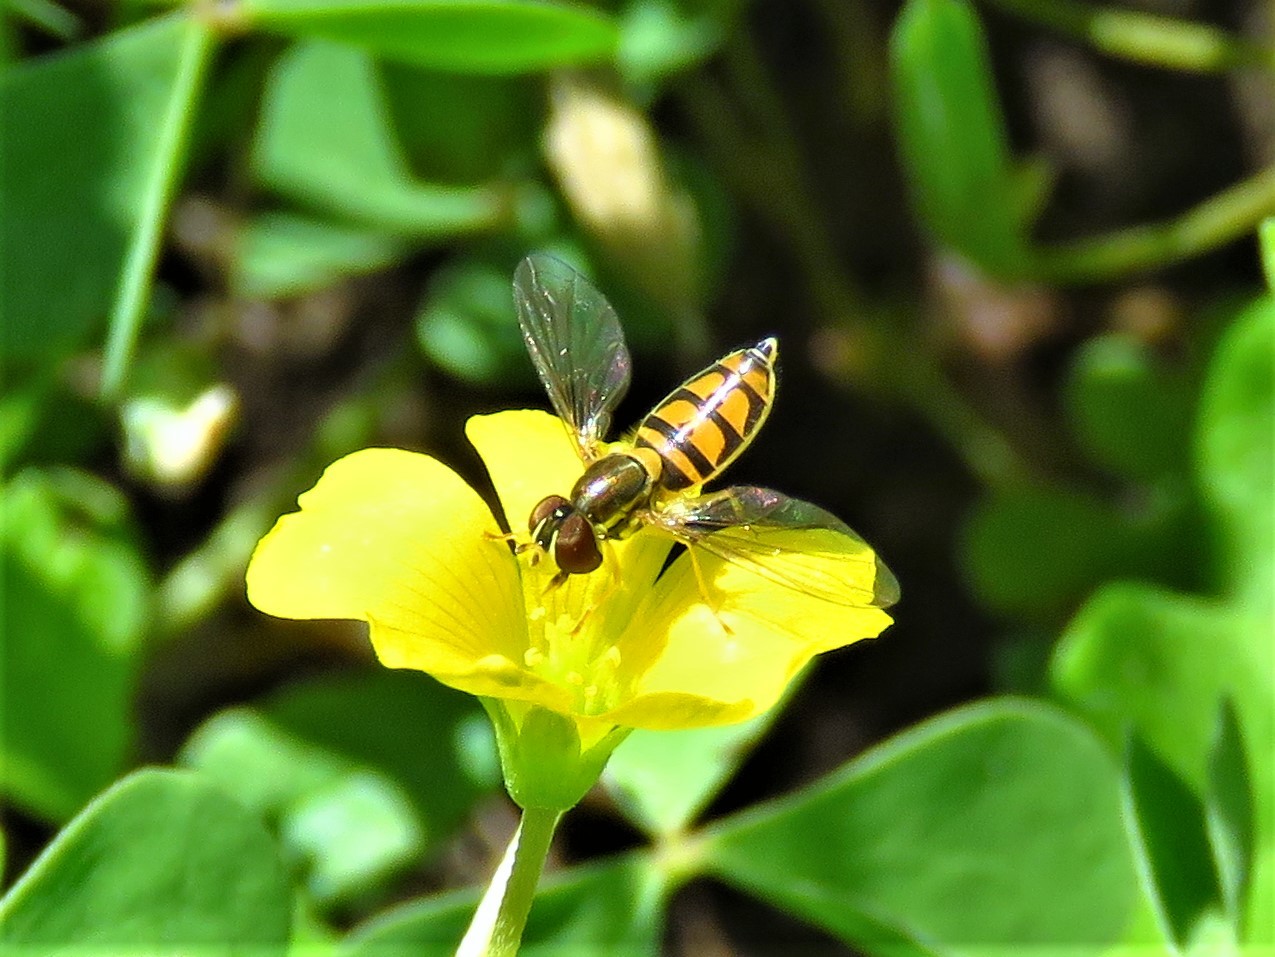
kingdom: Animalia
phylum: Arthropoda
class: Insecta
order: Diptera
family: Syrphidae
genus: Toxomerus
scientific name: Toxomerus marginatus
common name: Syrphid fly
